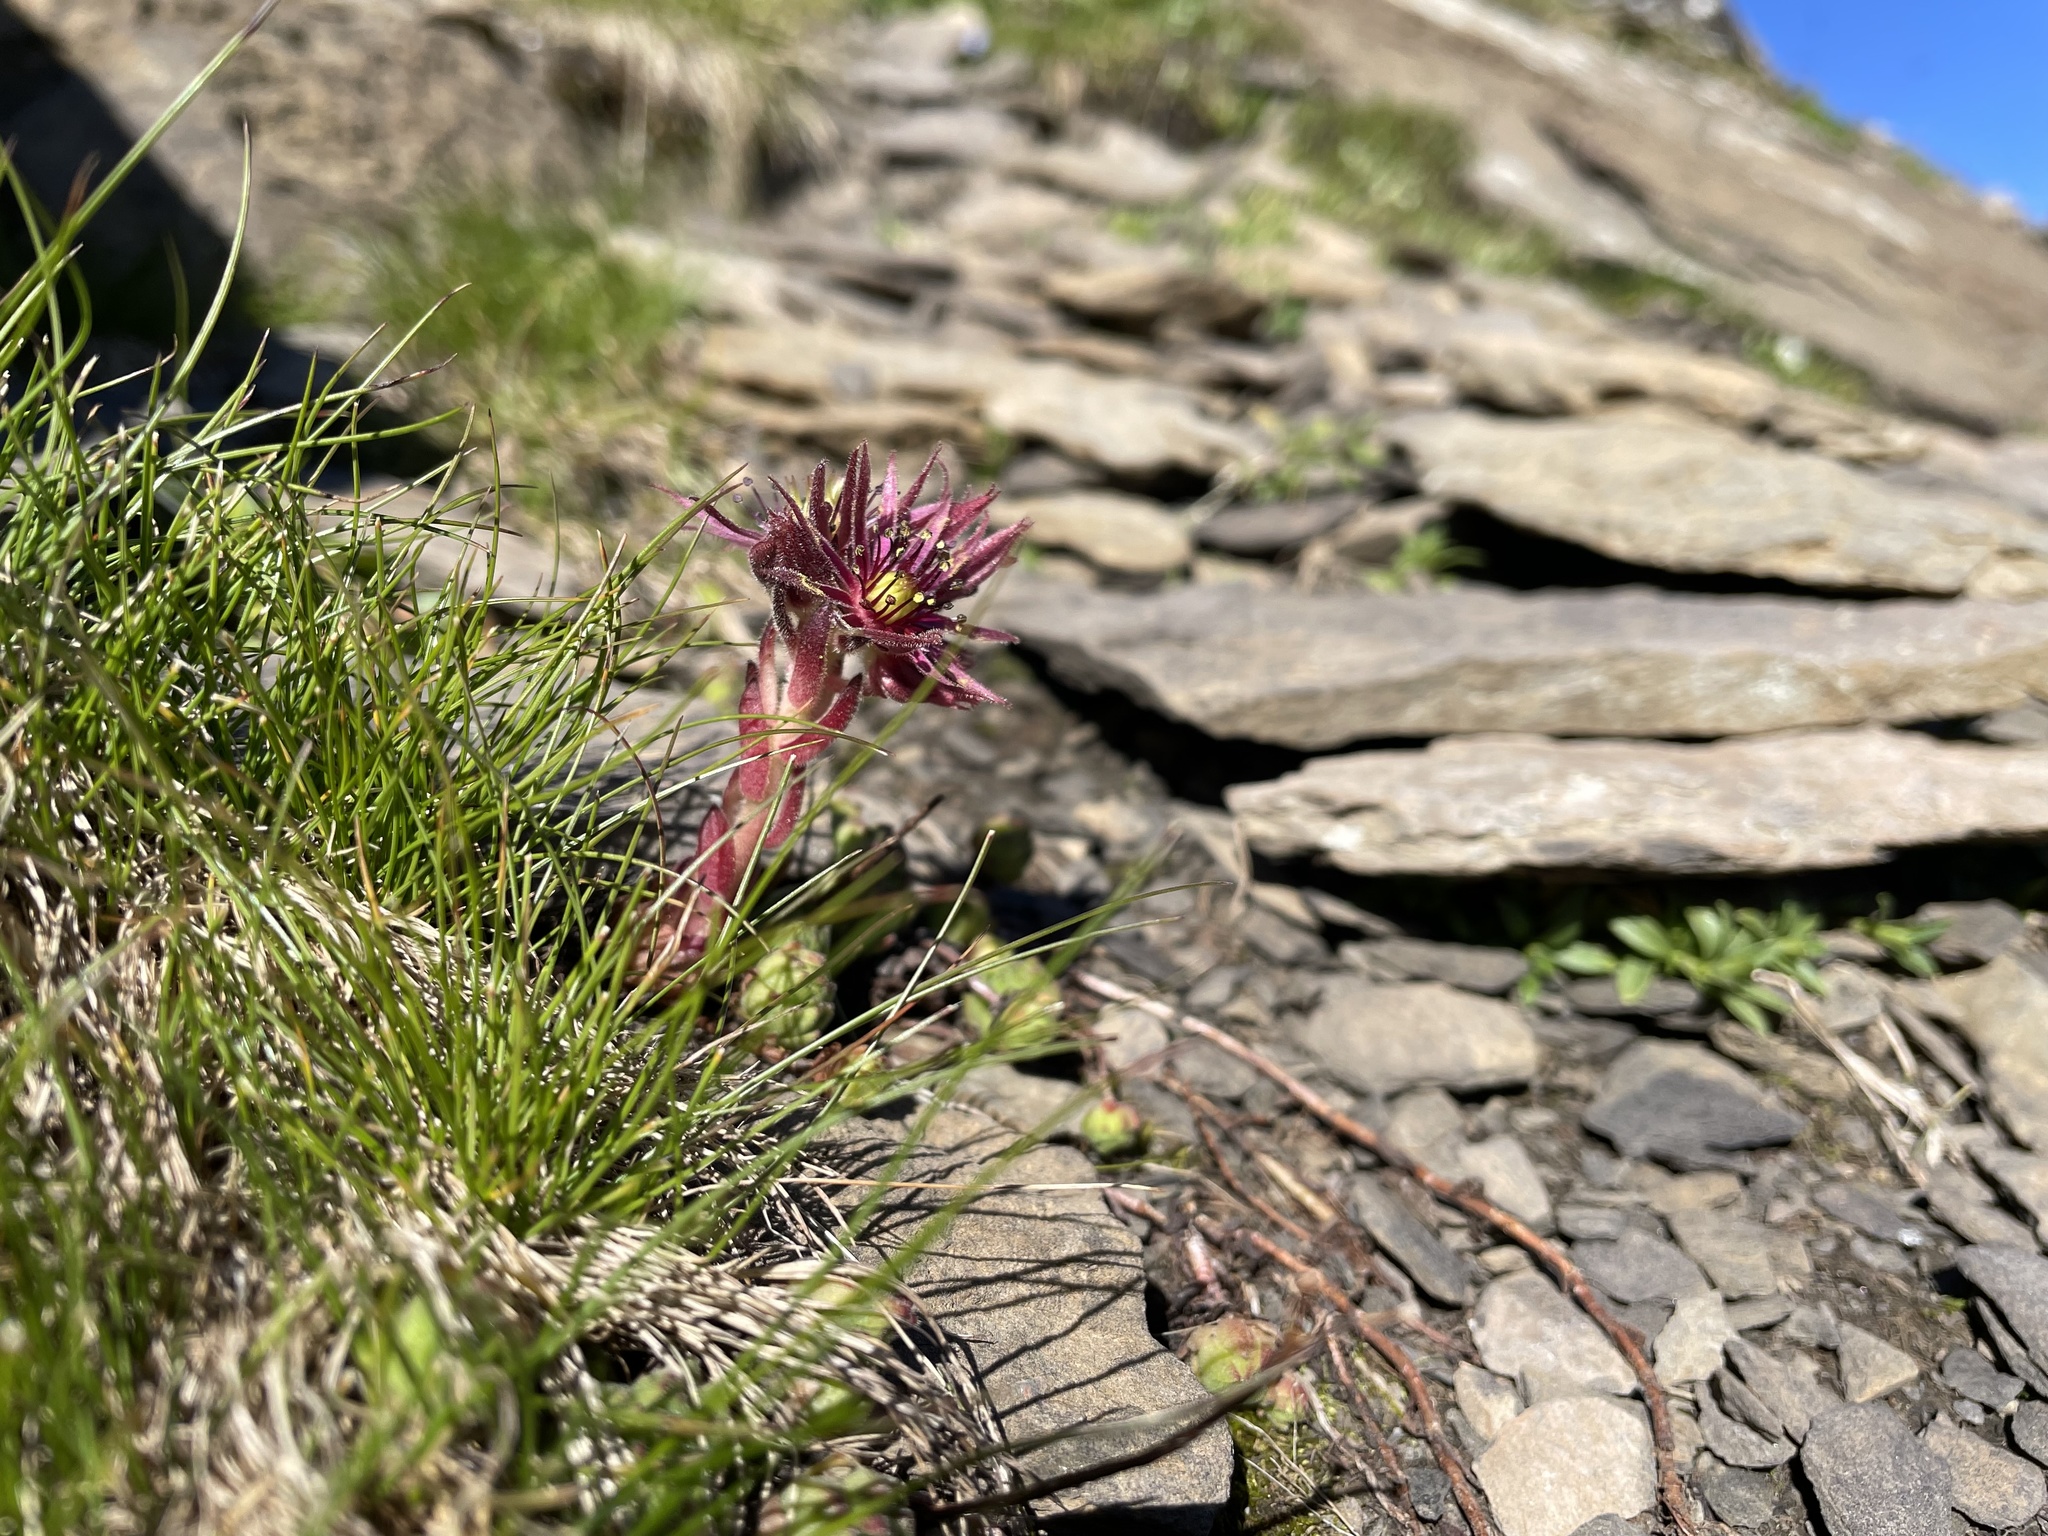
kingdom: Plantae
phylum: Tracheophyta
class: Magnoliopsida
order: Saxifragales
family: Crassulaceae
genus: Sempervivum
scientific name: Sempervivum montanum
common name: Mountain house-leek
